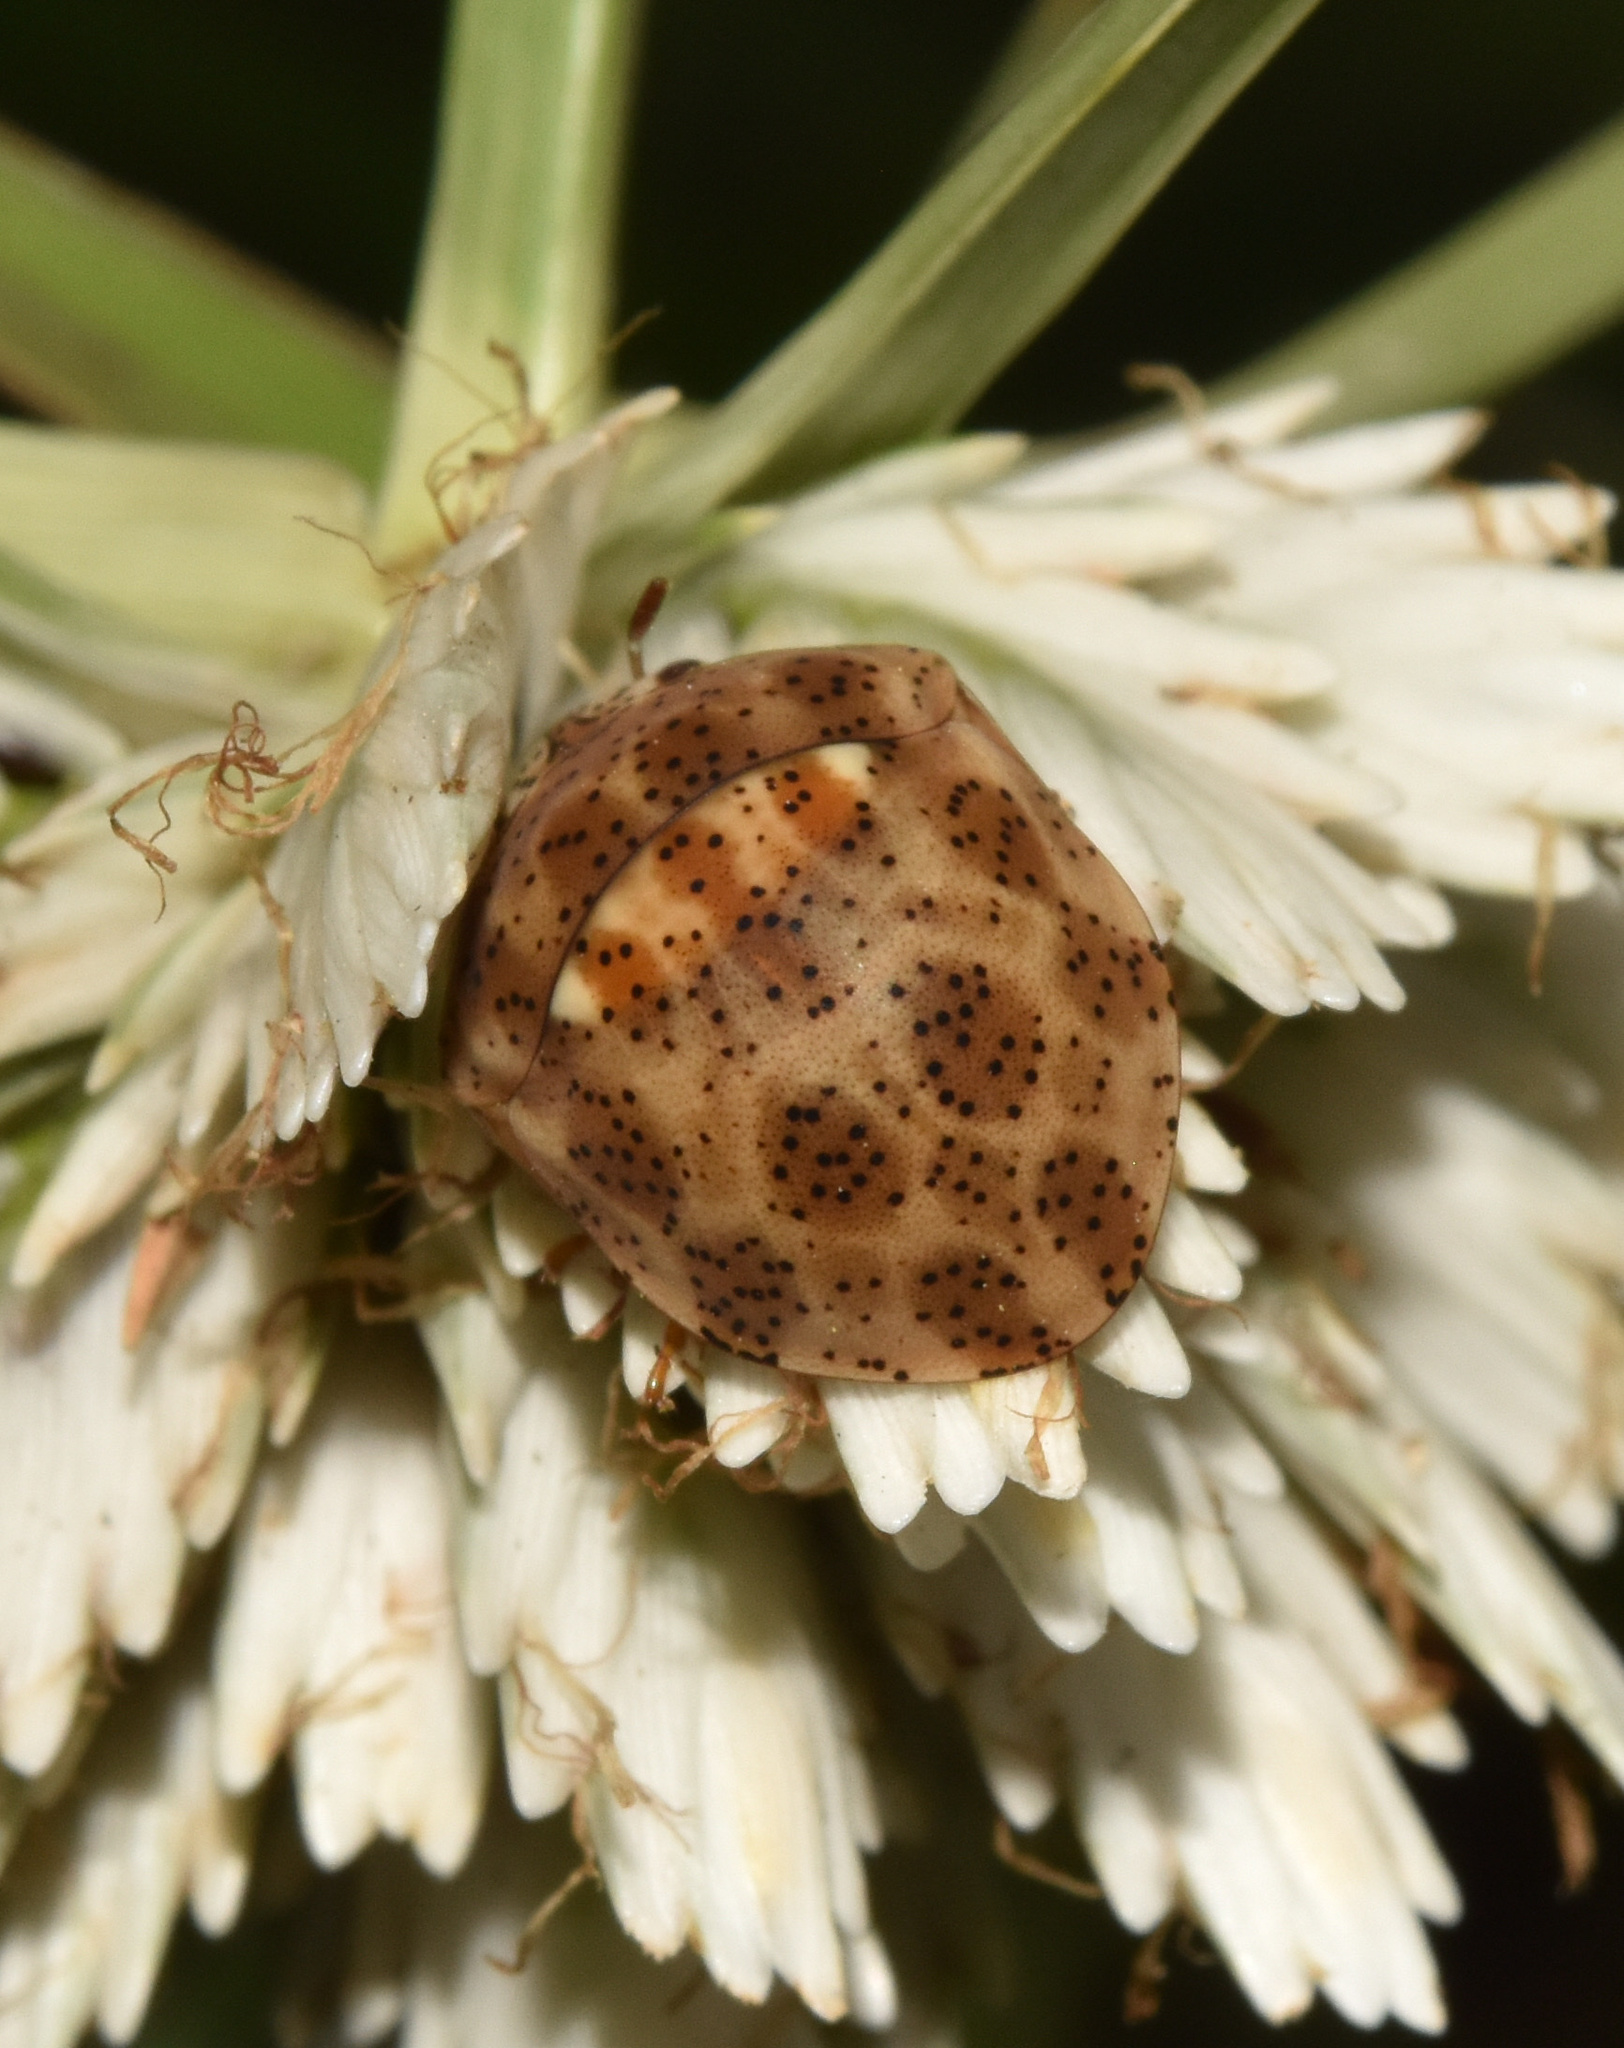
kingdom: Animalia
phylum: Arthropoda
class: Insecta
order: Hemiptera
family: Scutelleridae
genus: Sphaerocoris
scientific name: Sphaerocoris
